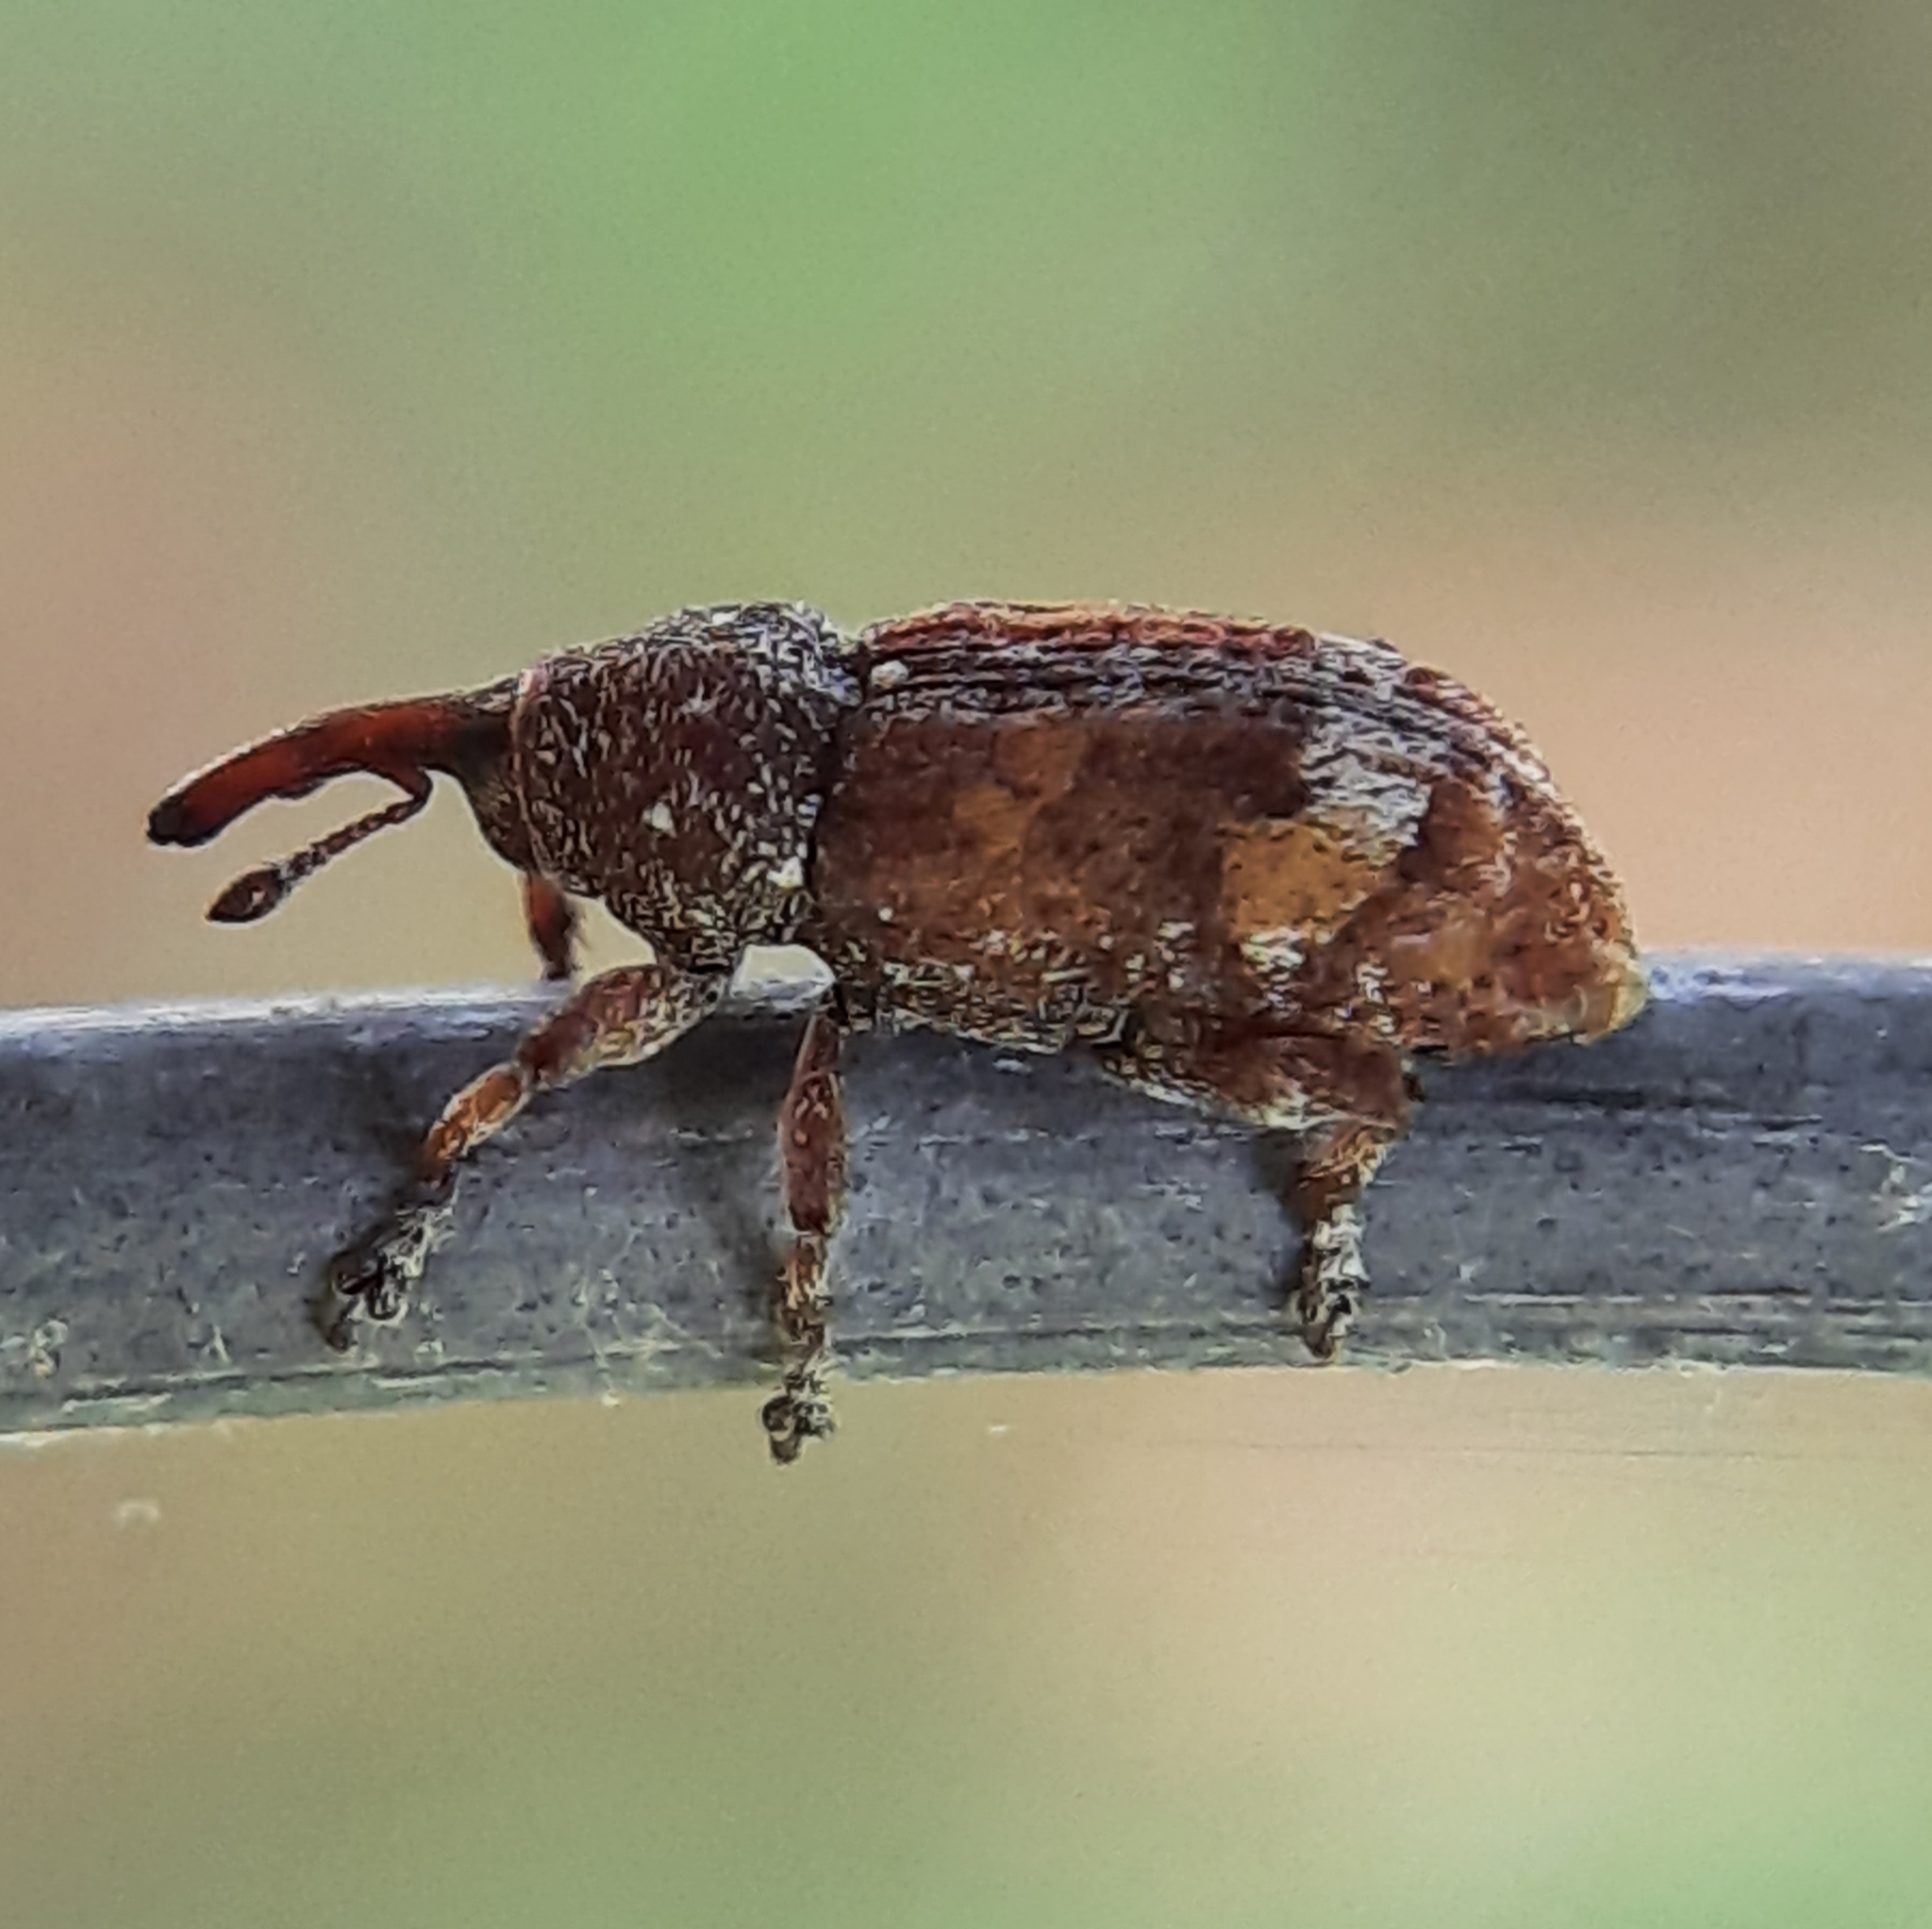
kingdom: Animalia
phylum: Arthropoda
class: Insecta
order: Coleoptera
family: Curculionidae
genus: Pissodes
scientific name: Pissodes strobi
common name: White pine weevil
